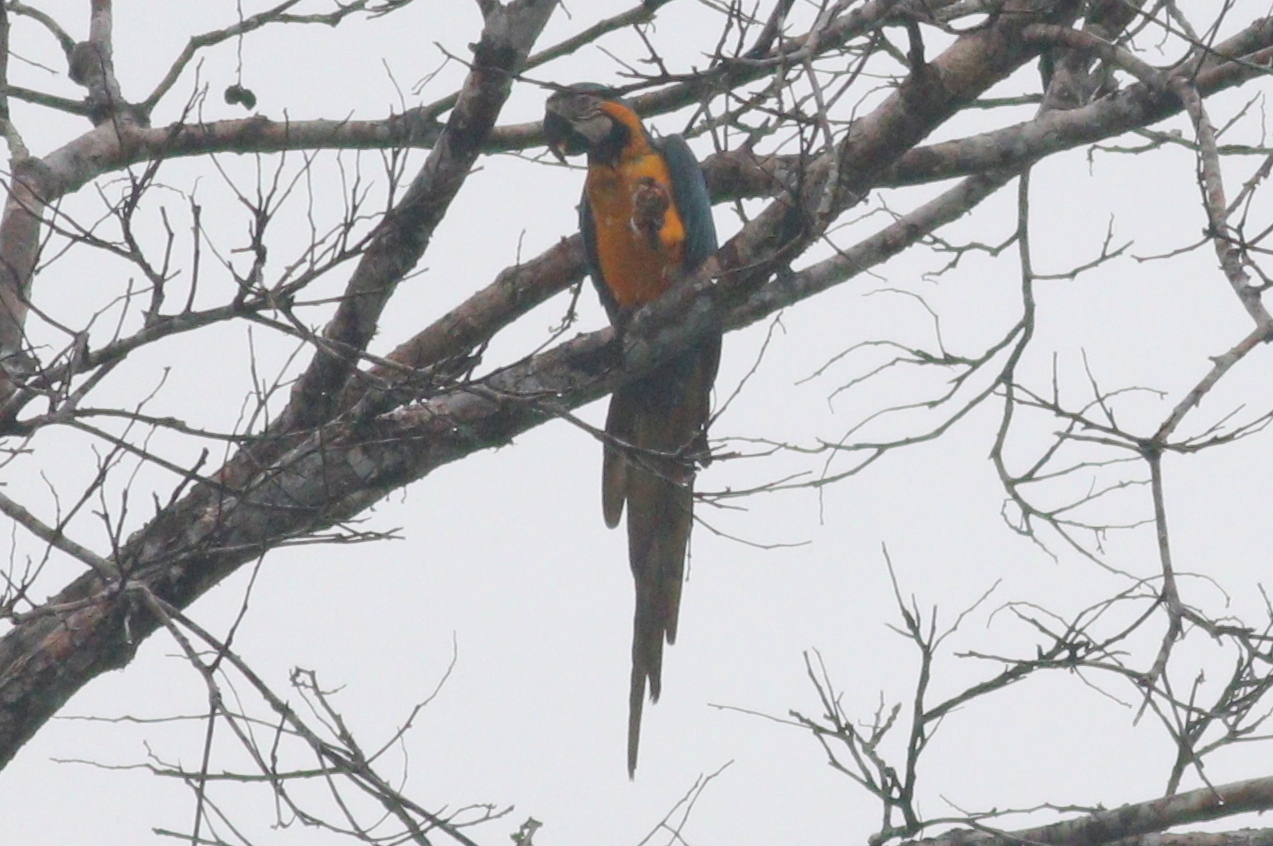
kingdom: Animalia
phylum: Chordata
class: Aves
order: Psittaciformes
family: Psittacidae
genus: Ara
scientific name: Ara ararauna
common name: Blue-and-yellow macaw
